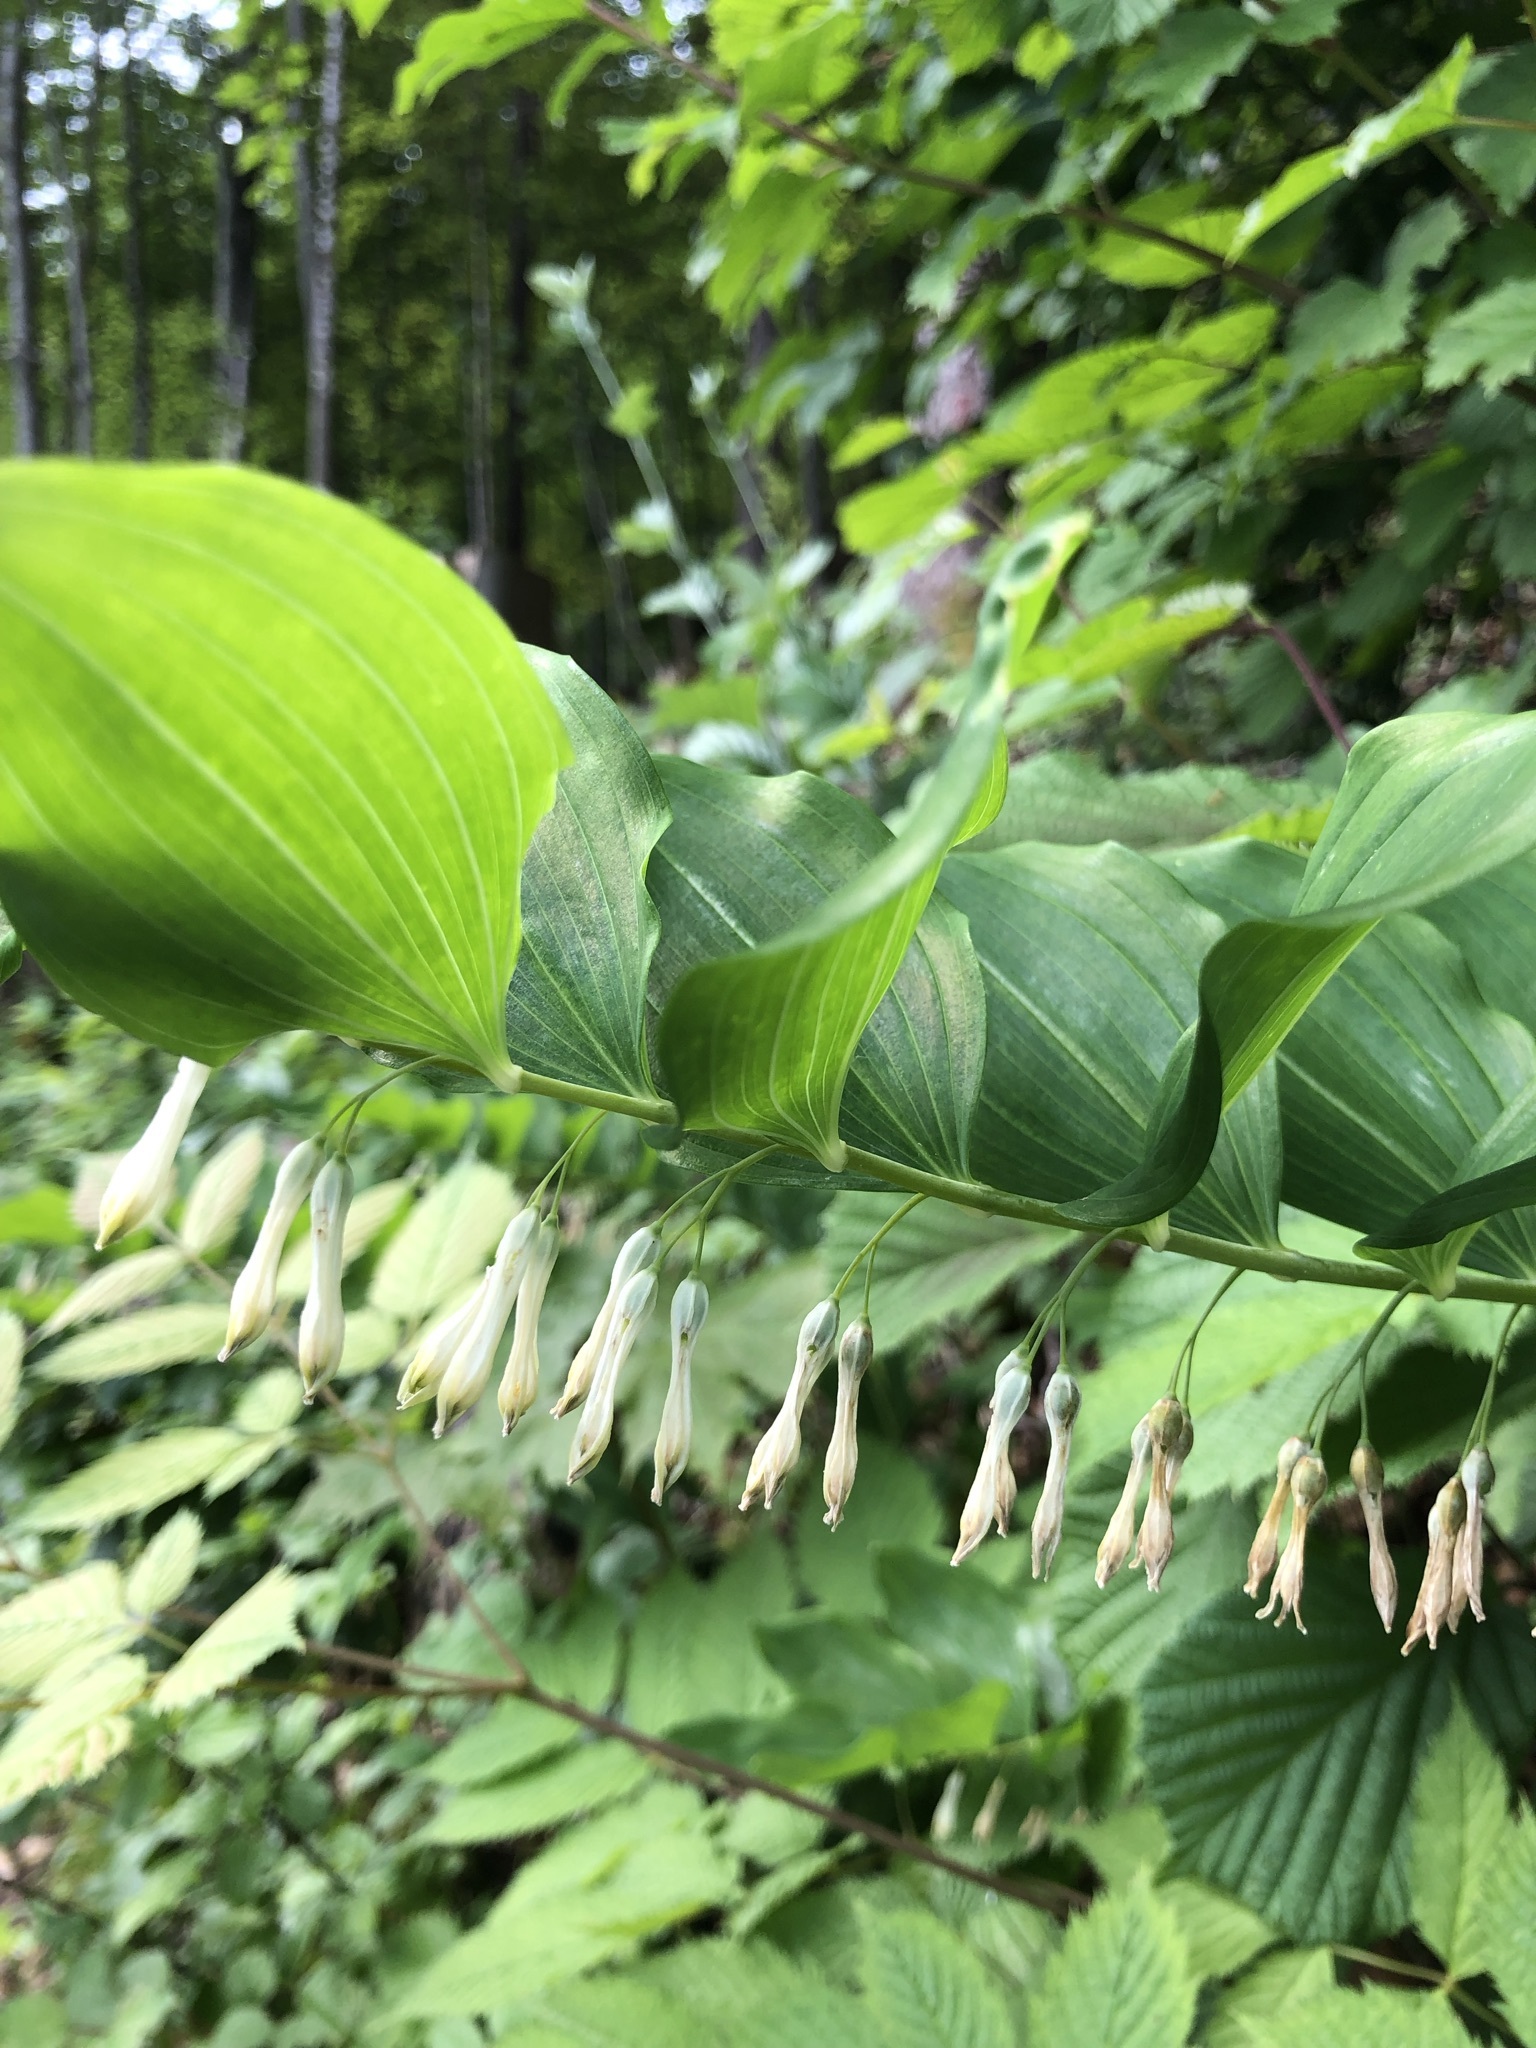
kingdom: Plantae
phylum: Tracheophyta
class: Liliopsida
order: Asparagales
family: Asparagaceae
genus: Polygonatum
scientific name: Polygonatum multiflorum
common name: Solomon's-seal
